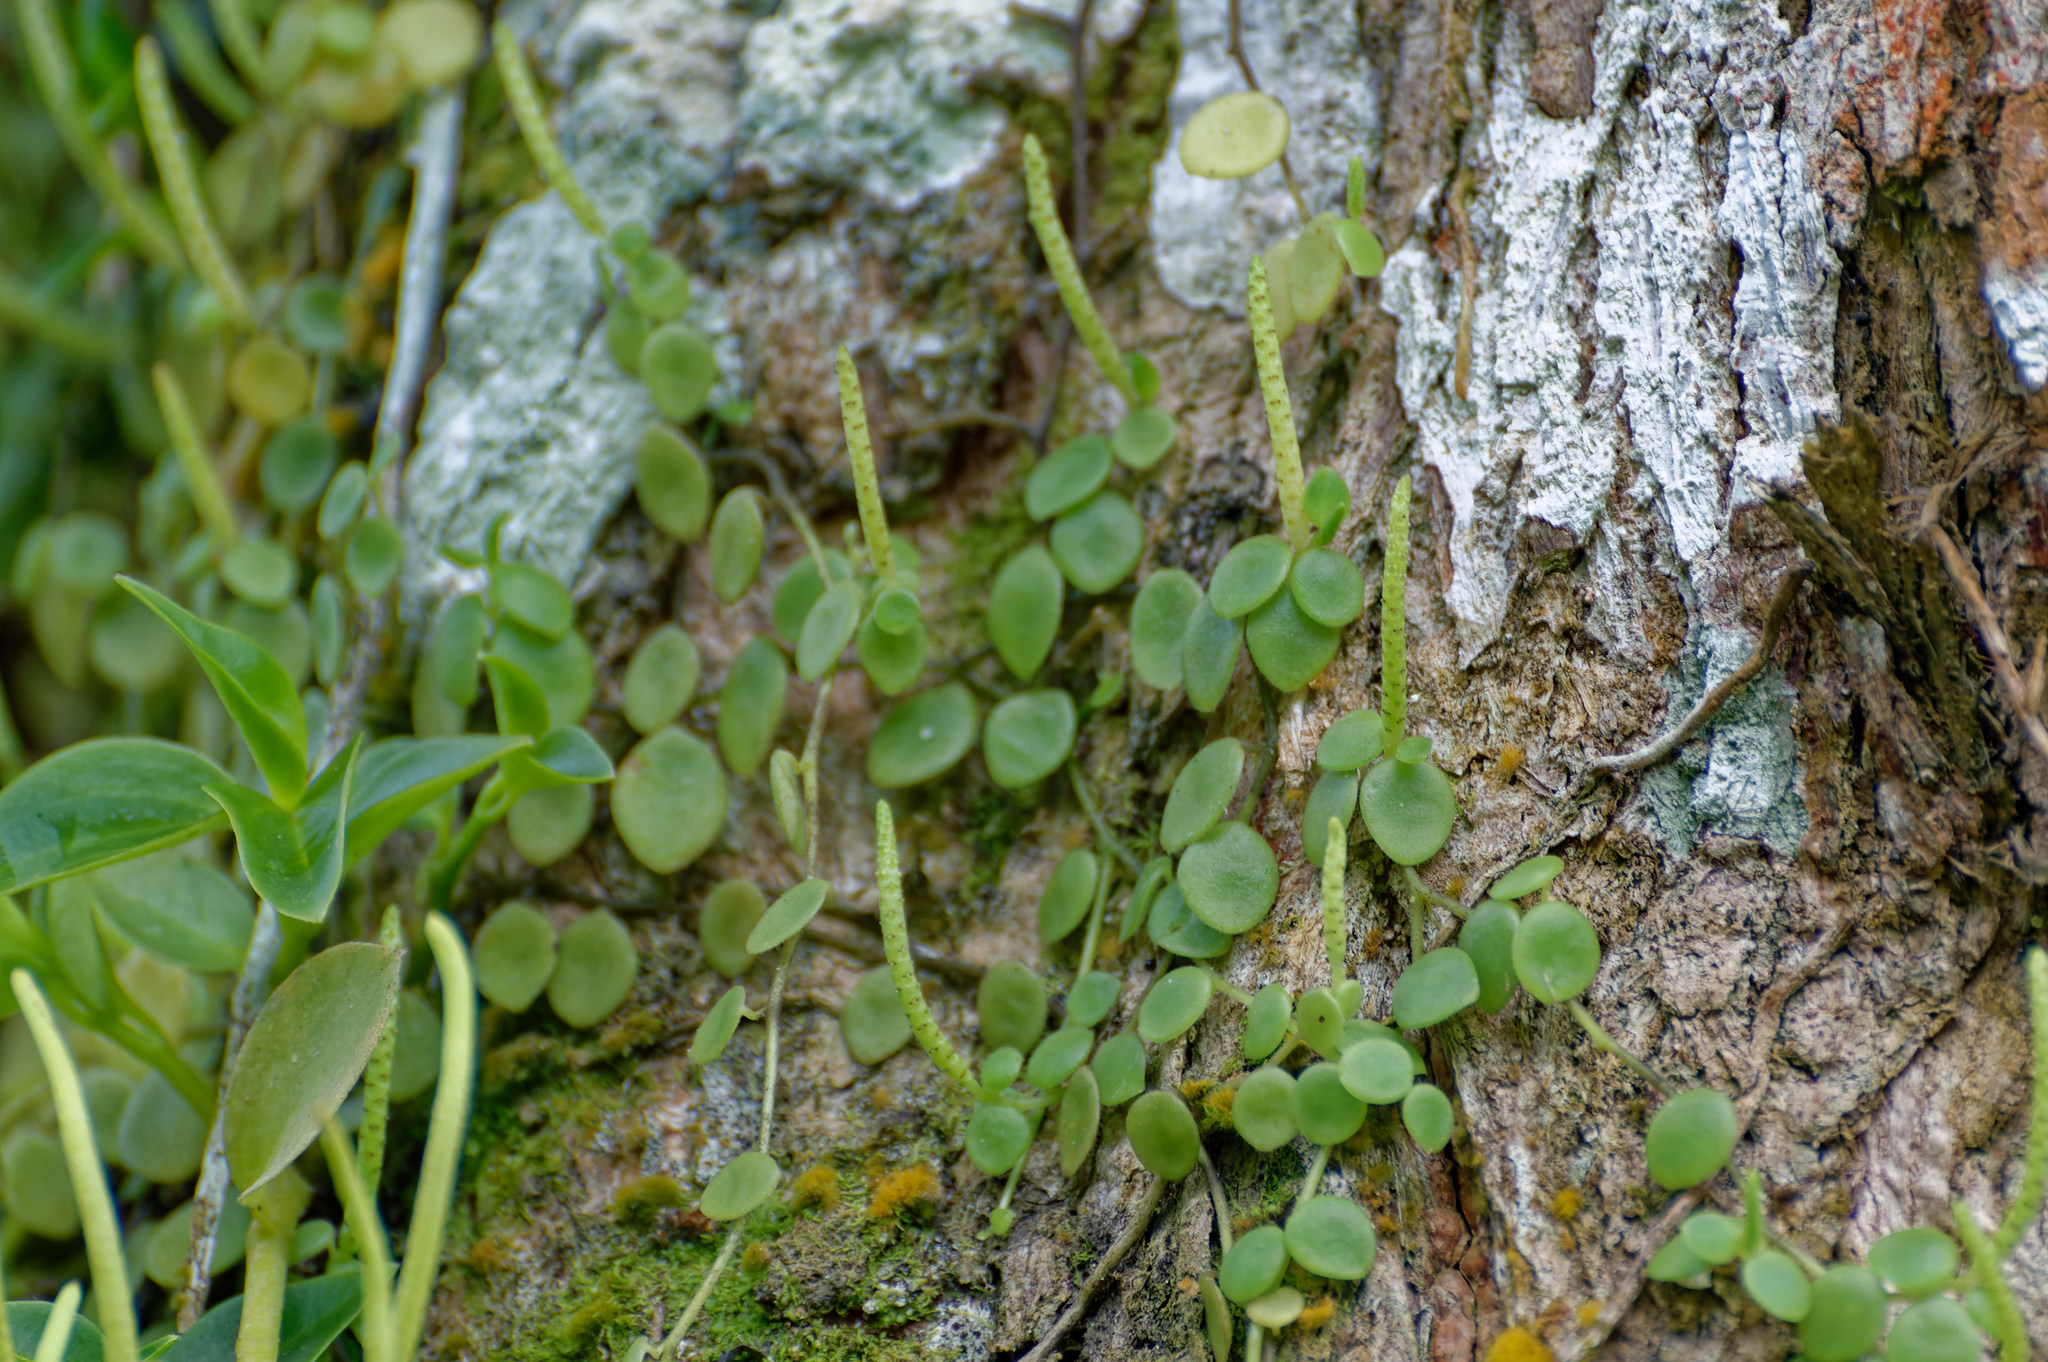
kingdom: Plantae
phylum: Tracheophyta
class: Magnoliopsida
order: Piperales
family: Piperaceae
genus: Peperomia
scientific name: Peperomia rotundifolia
